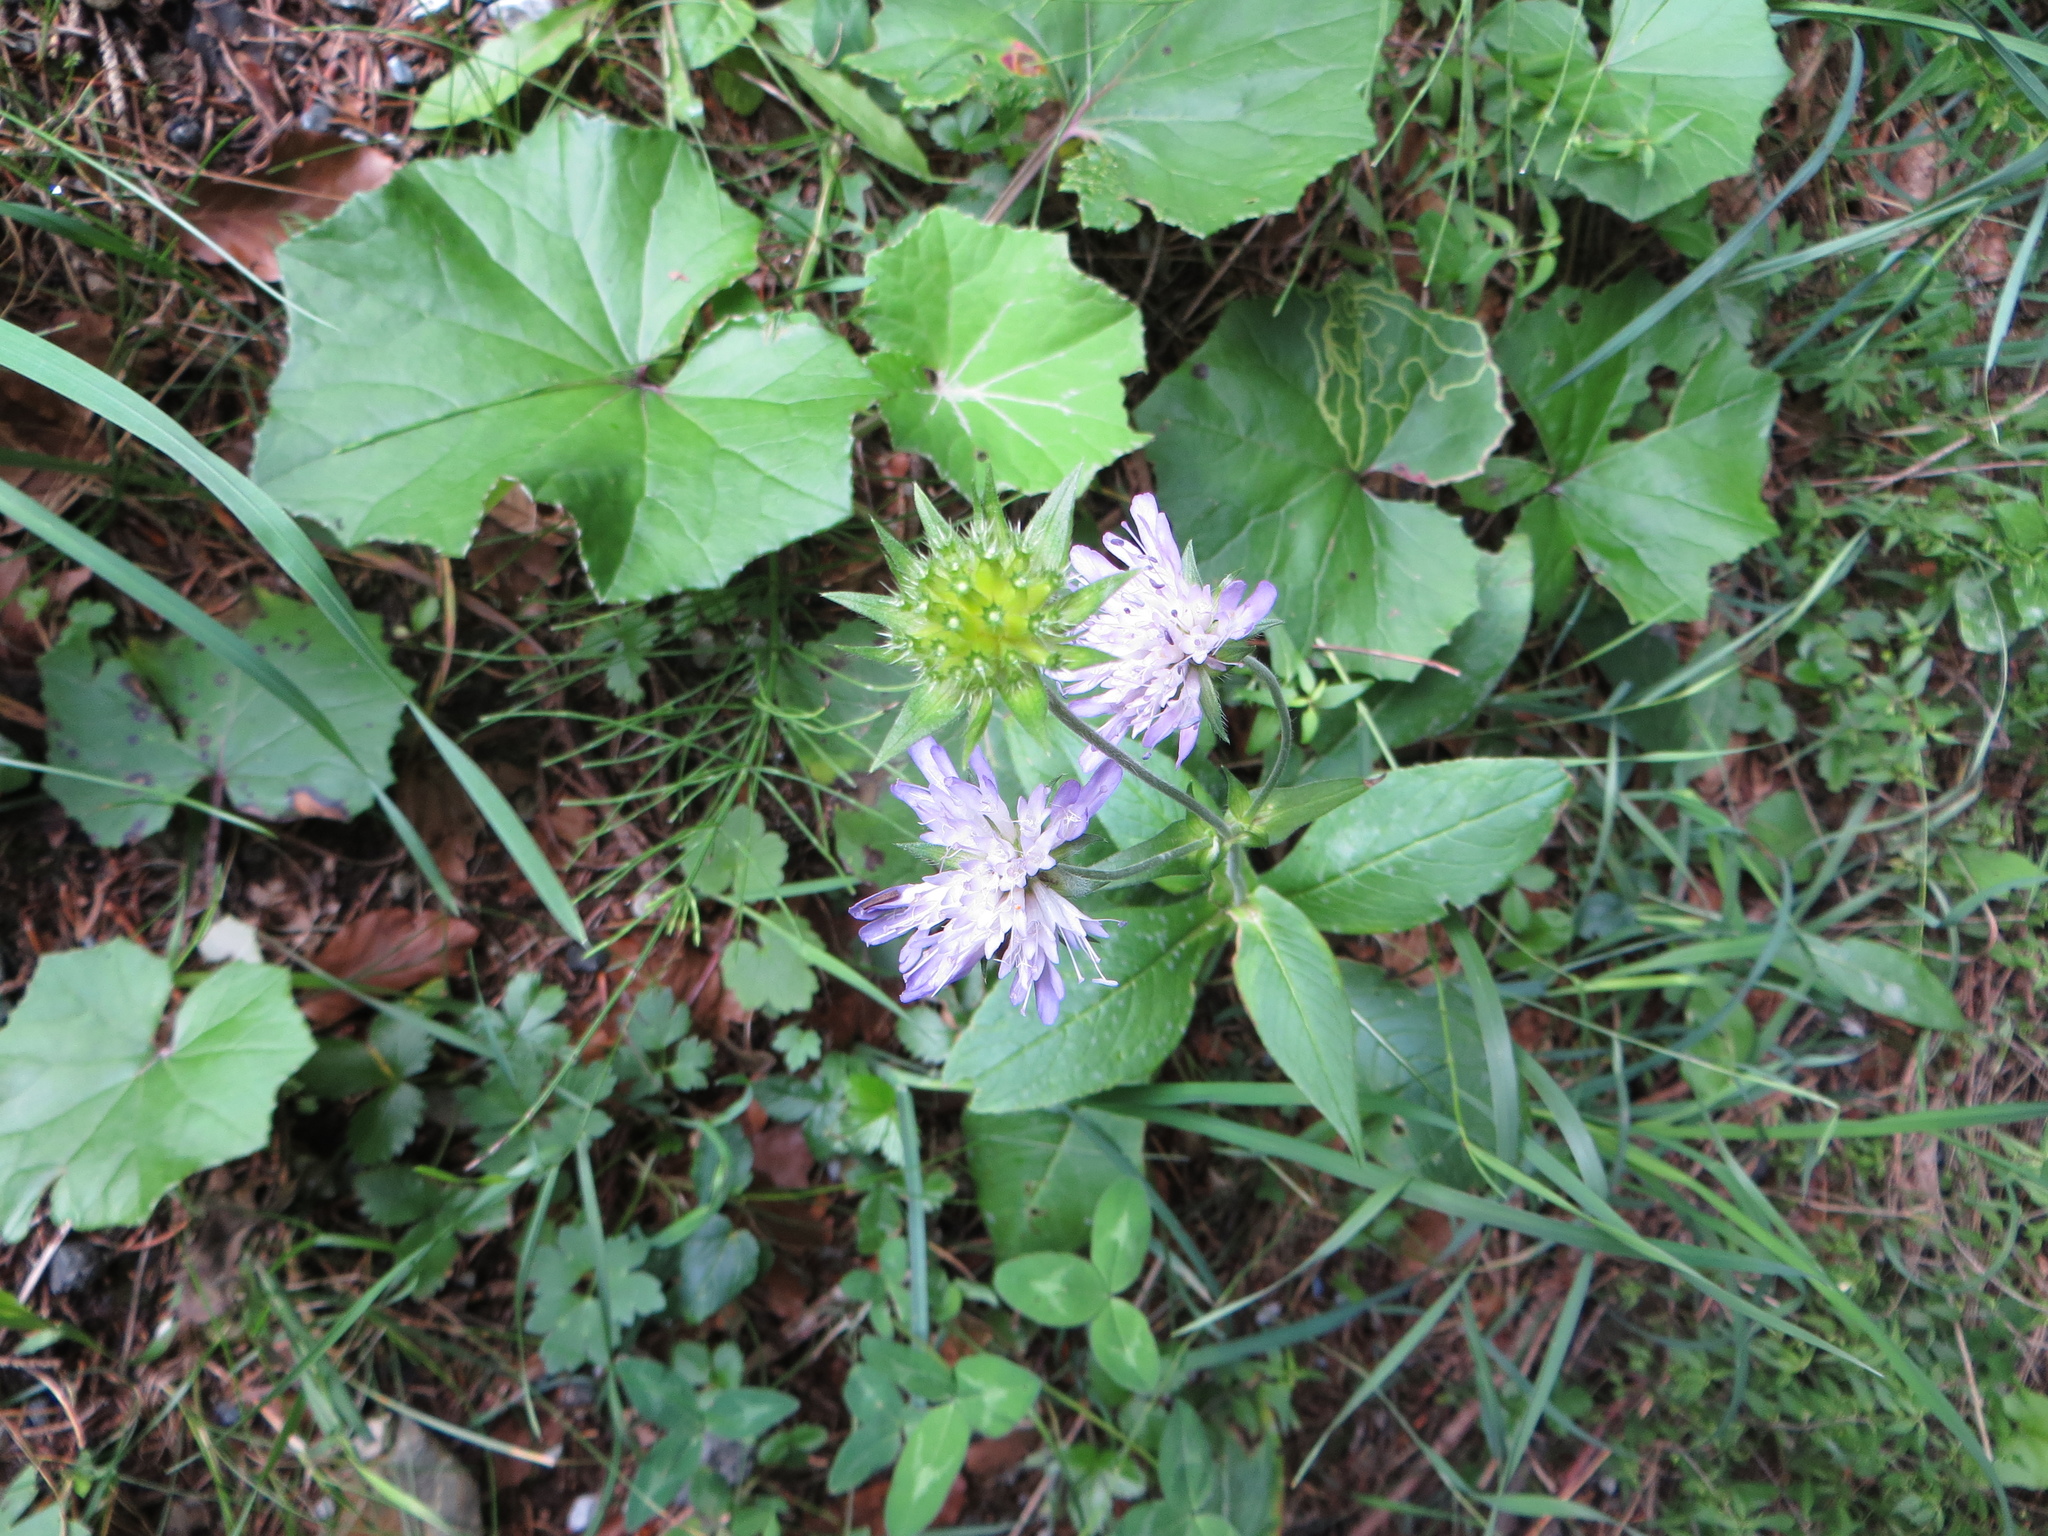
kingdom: Plantae
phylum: Tracheophyta
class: Magnoliopsida
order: Dipsacales
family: Caprifoliaceae
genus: Knautia
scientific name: Knautia dipsacifolia
